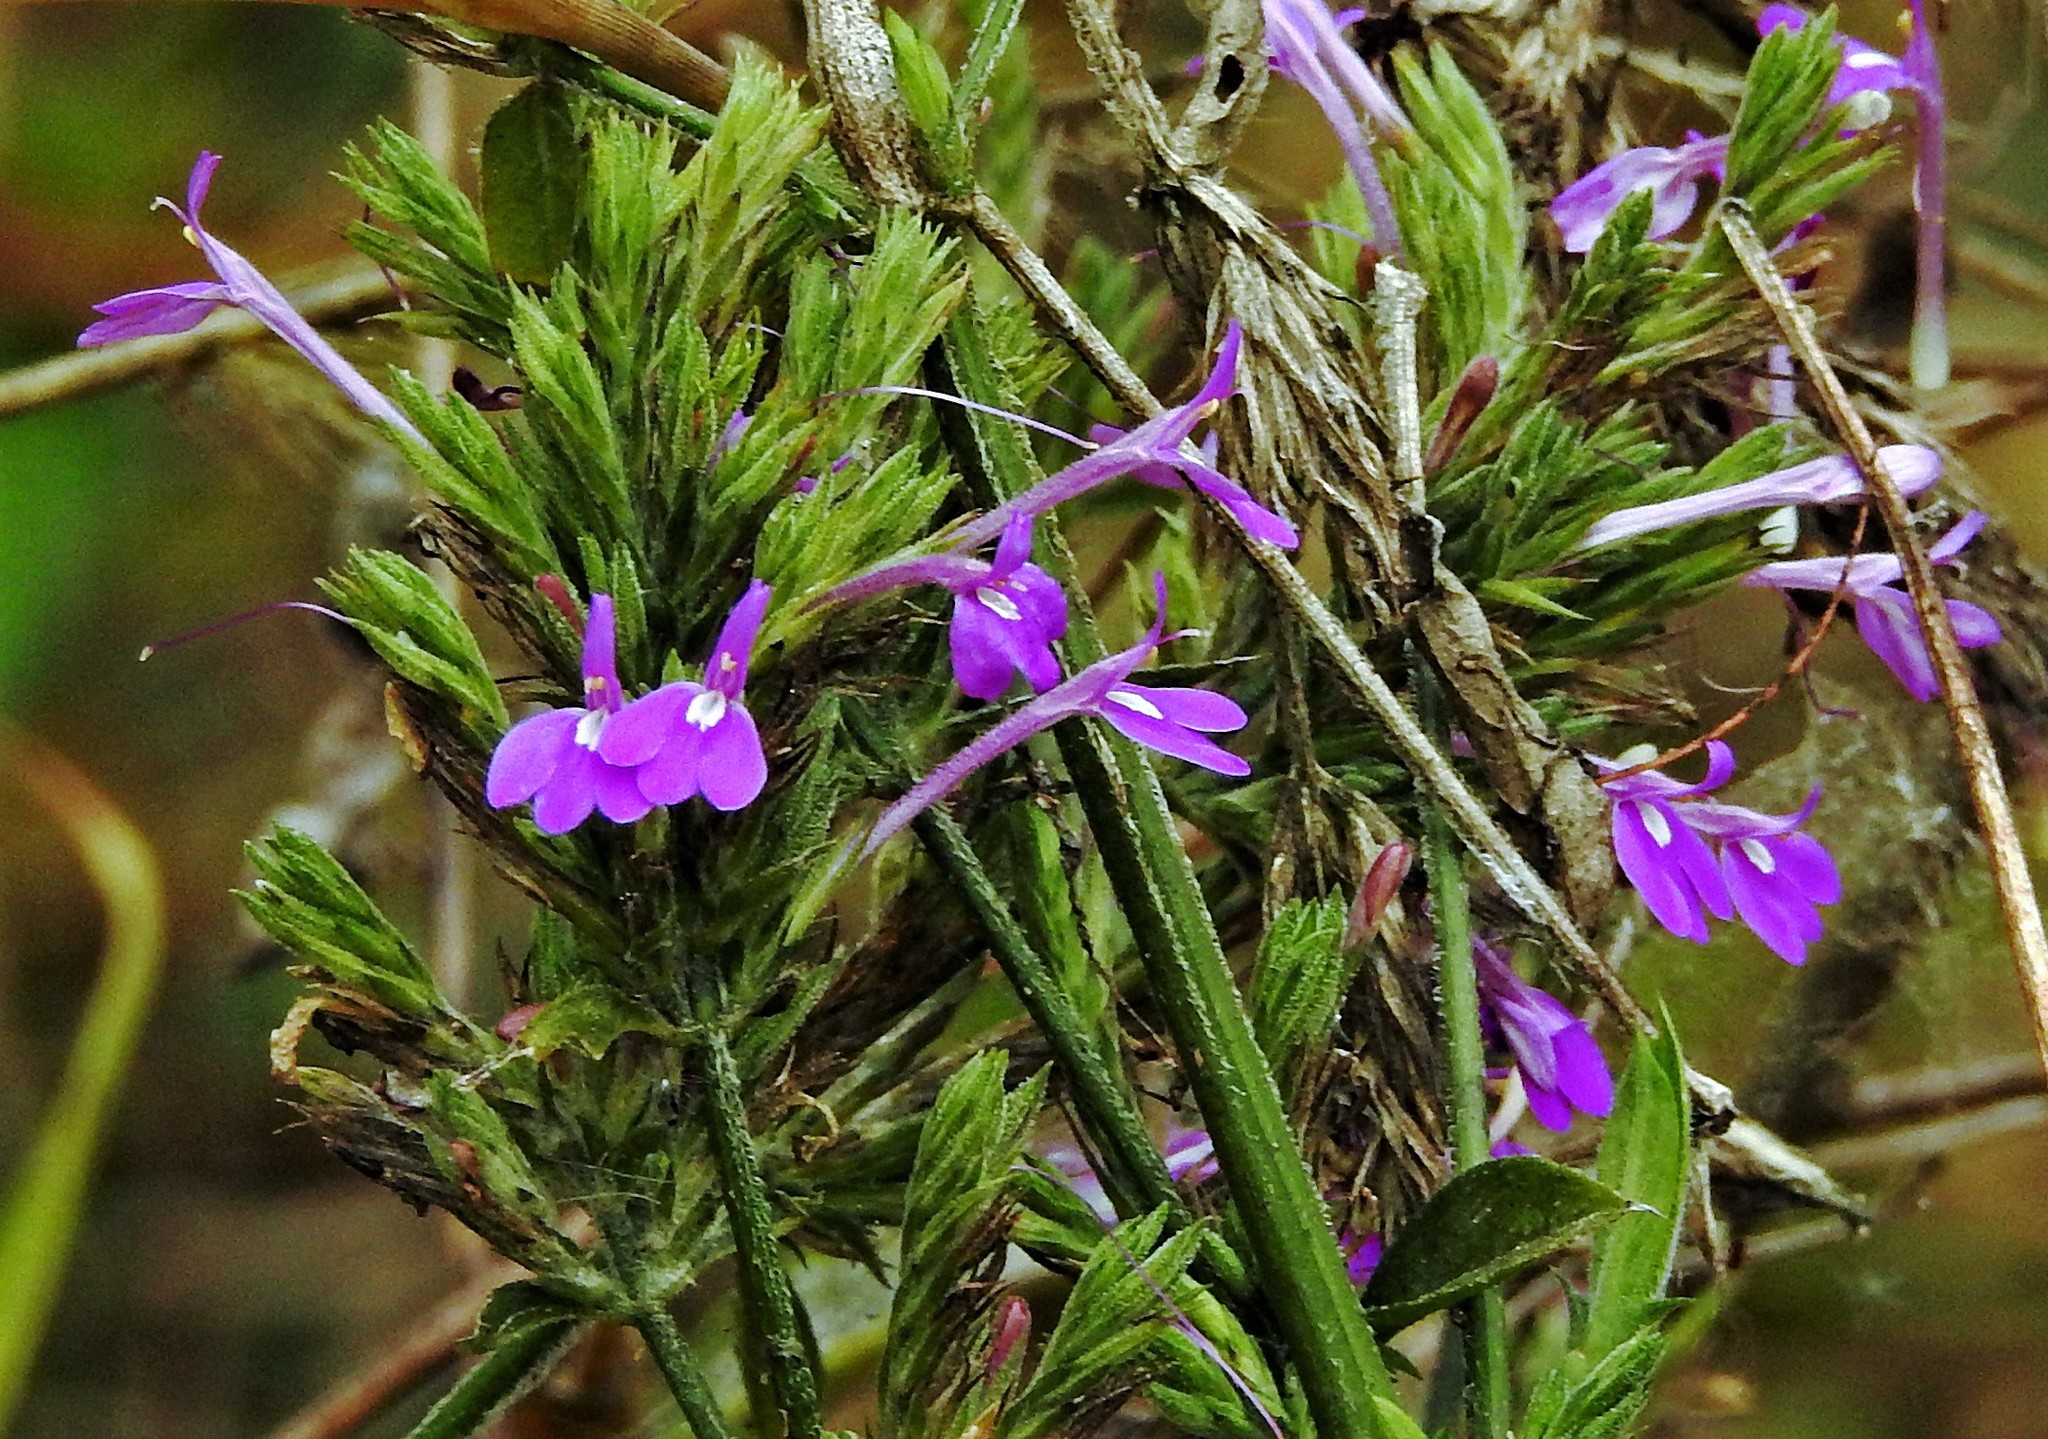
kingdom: Plantae
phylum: Tracheophyta
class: Magnoliopsida
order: Lamiales
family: Acanthaceae
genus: Justicia
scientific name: Justicia goudotii
